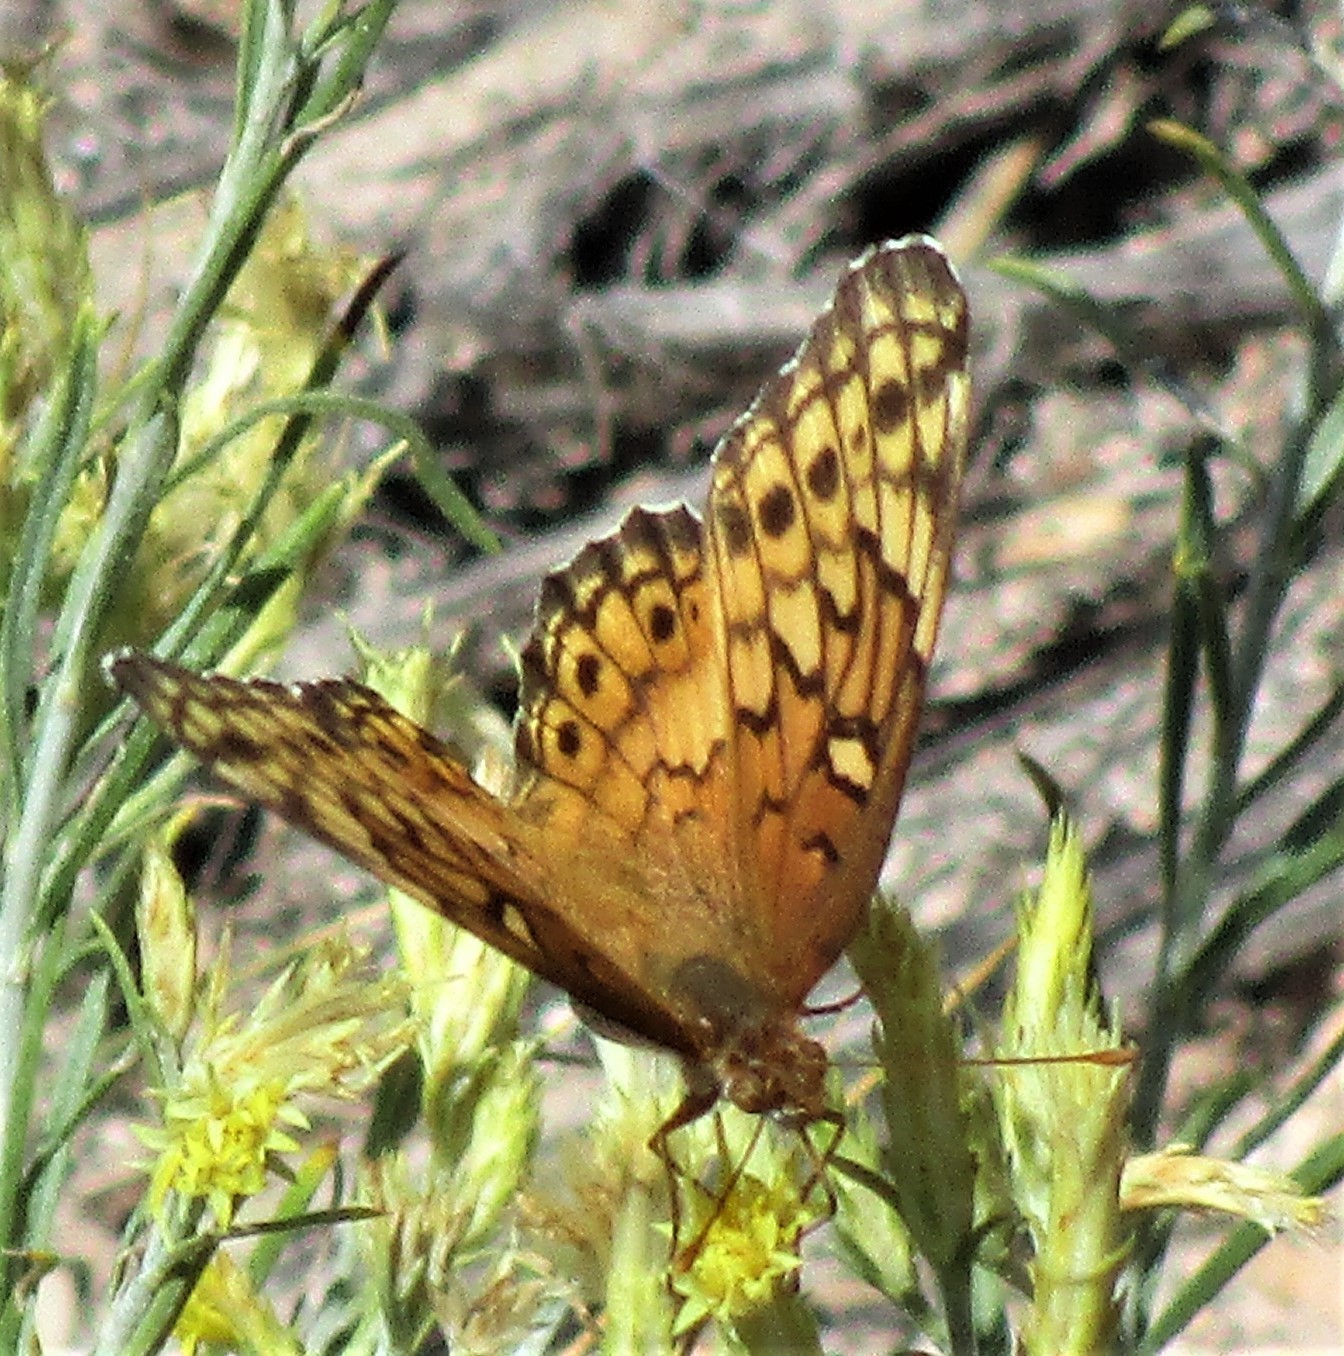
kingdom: Animalia
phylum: Arthropoda
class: Insecta
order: Lepidoptera
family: Nymphalidae
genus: Euptoieta
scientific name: Euptoieta claudia
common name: Variegated fritillary
